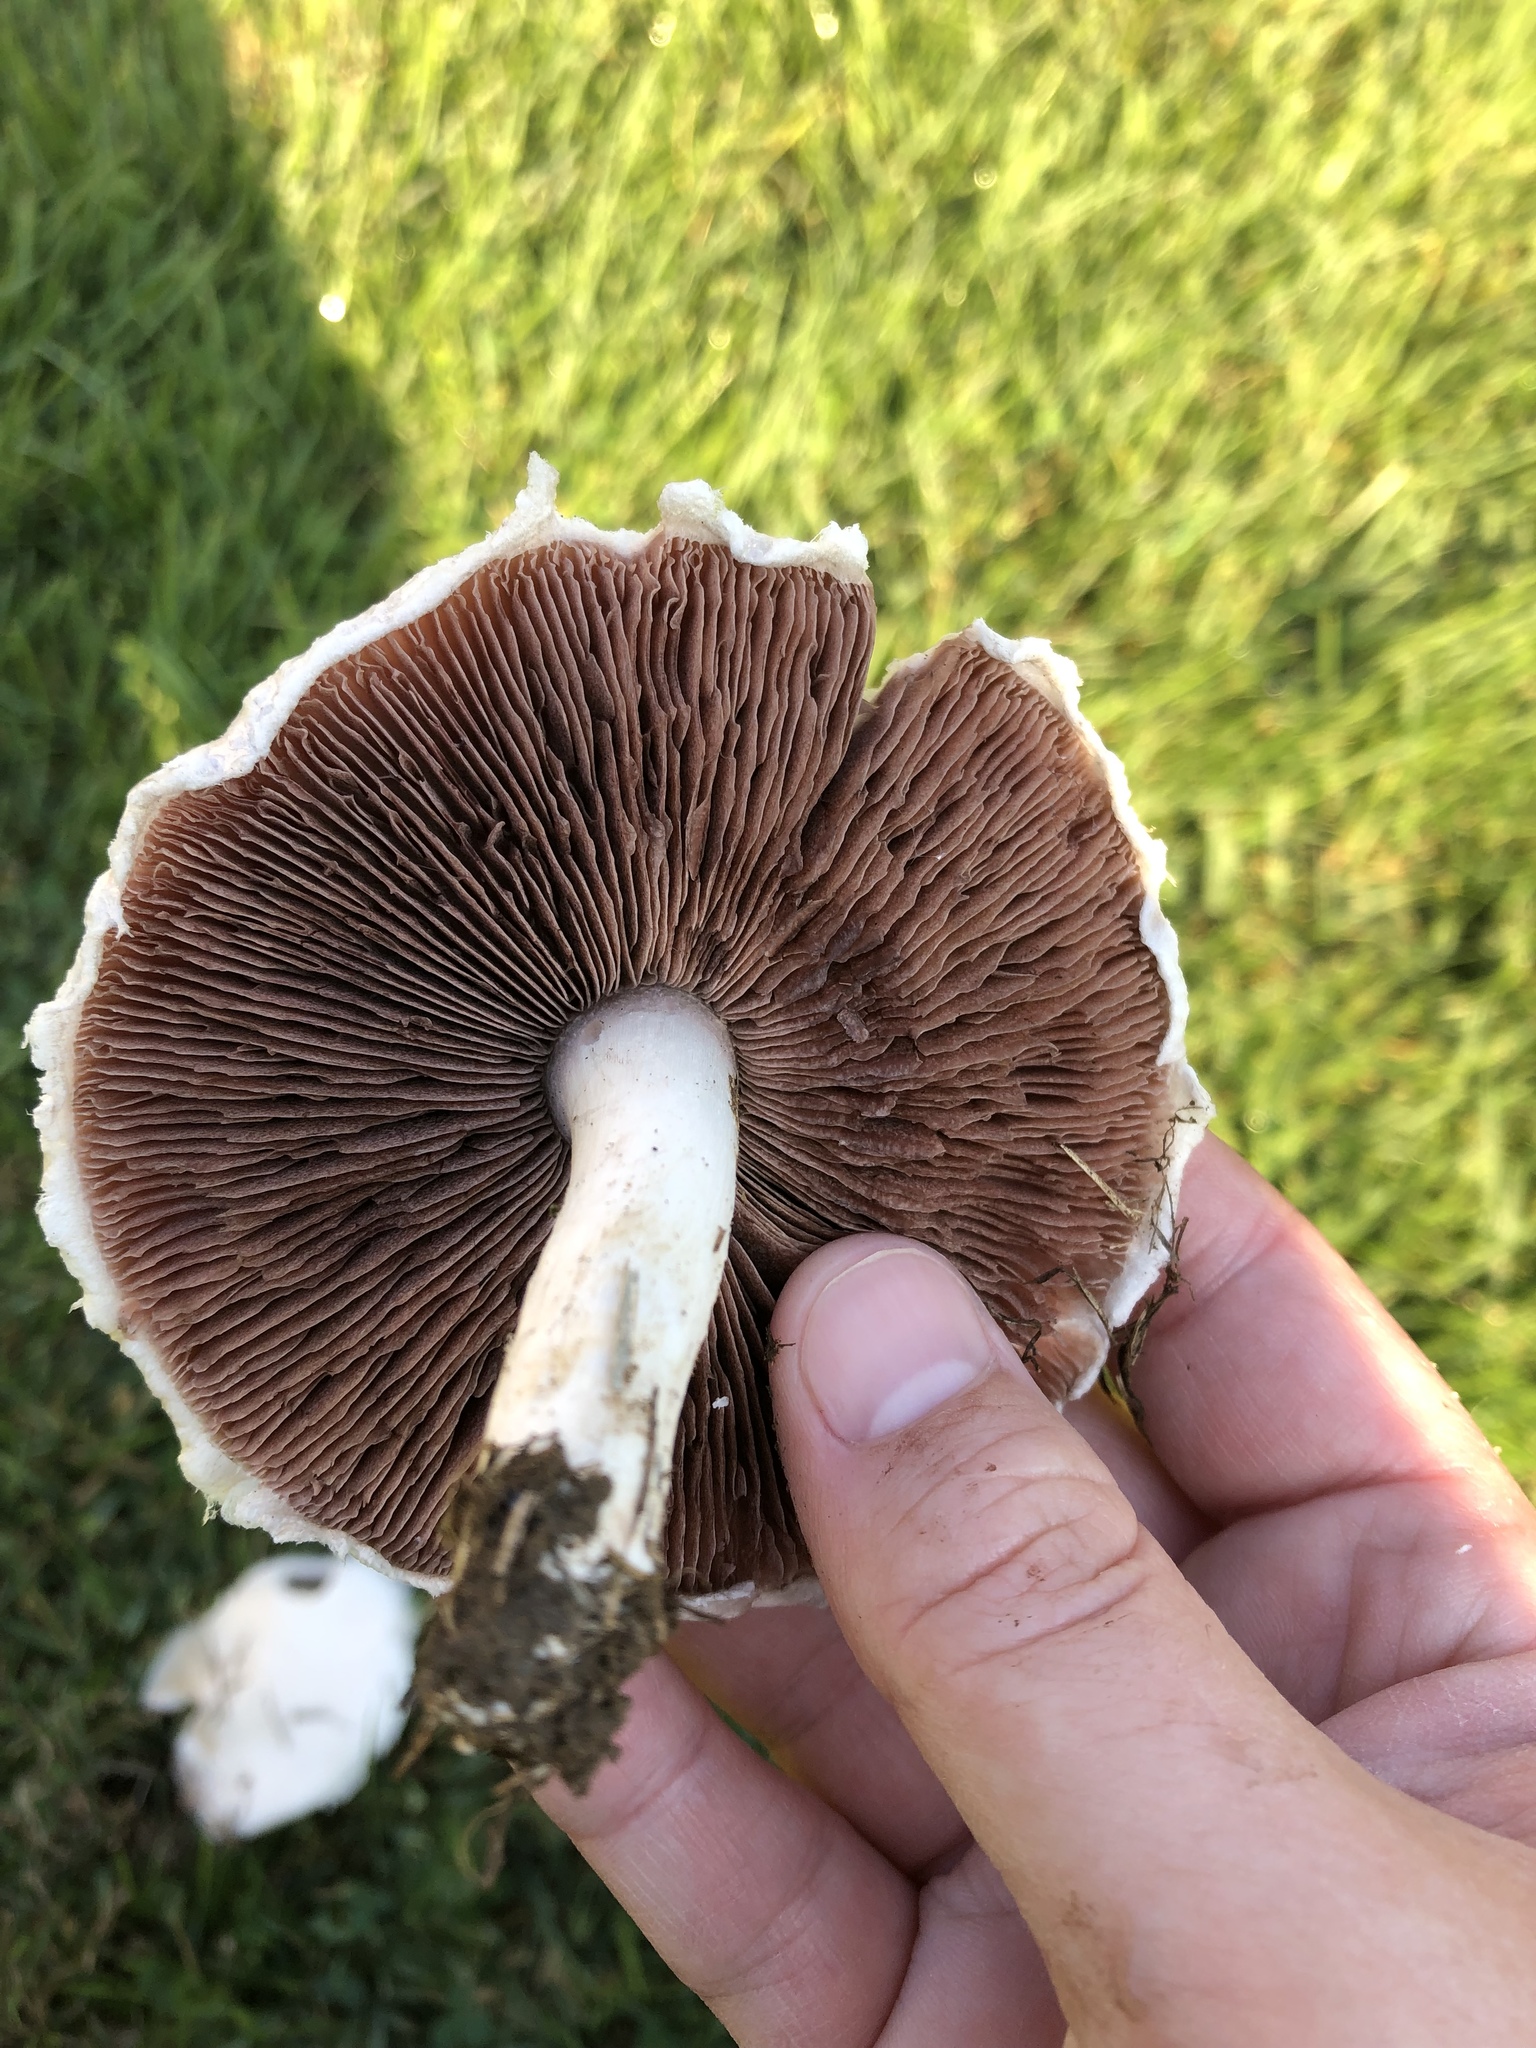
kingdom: Fungi
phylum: Basidiomycota
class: Agaricomycetes
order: Agaricales
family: Agaricaceae
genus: Agaricus
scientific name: Agaricus campestris
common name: Field mushroom
